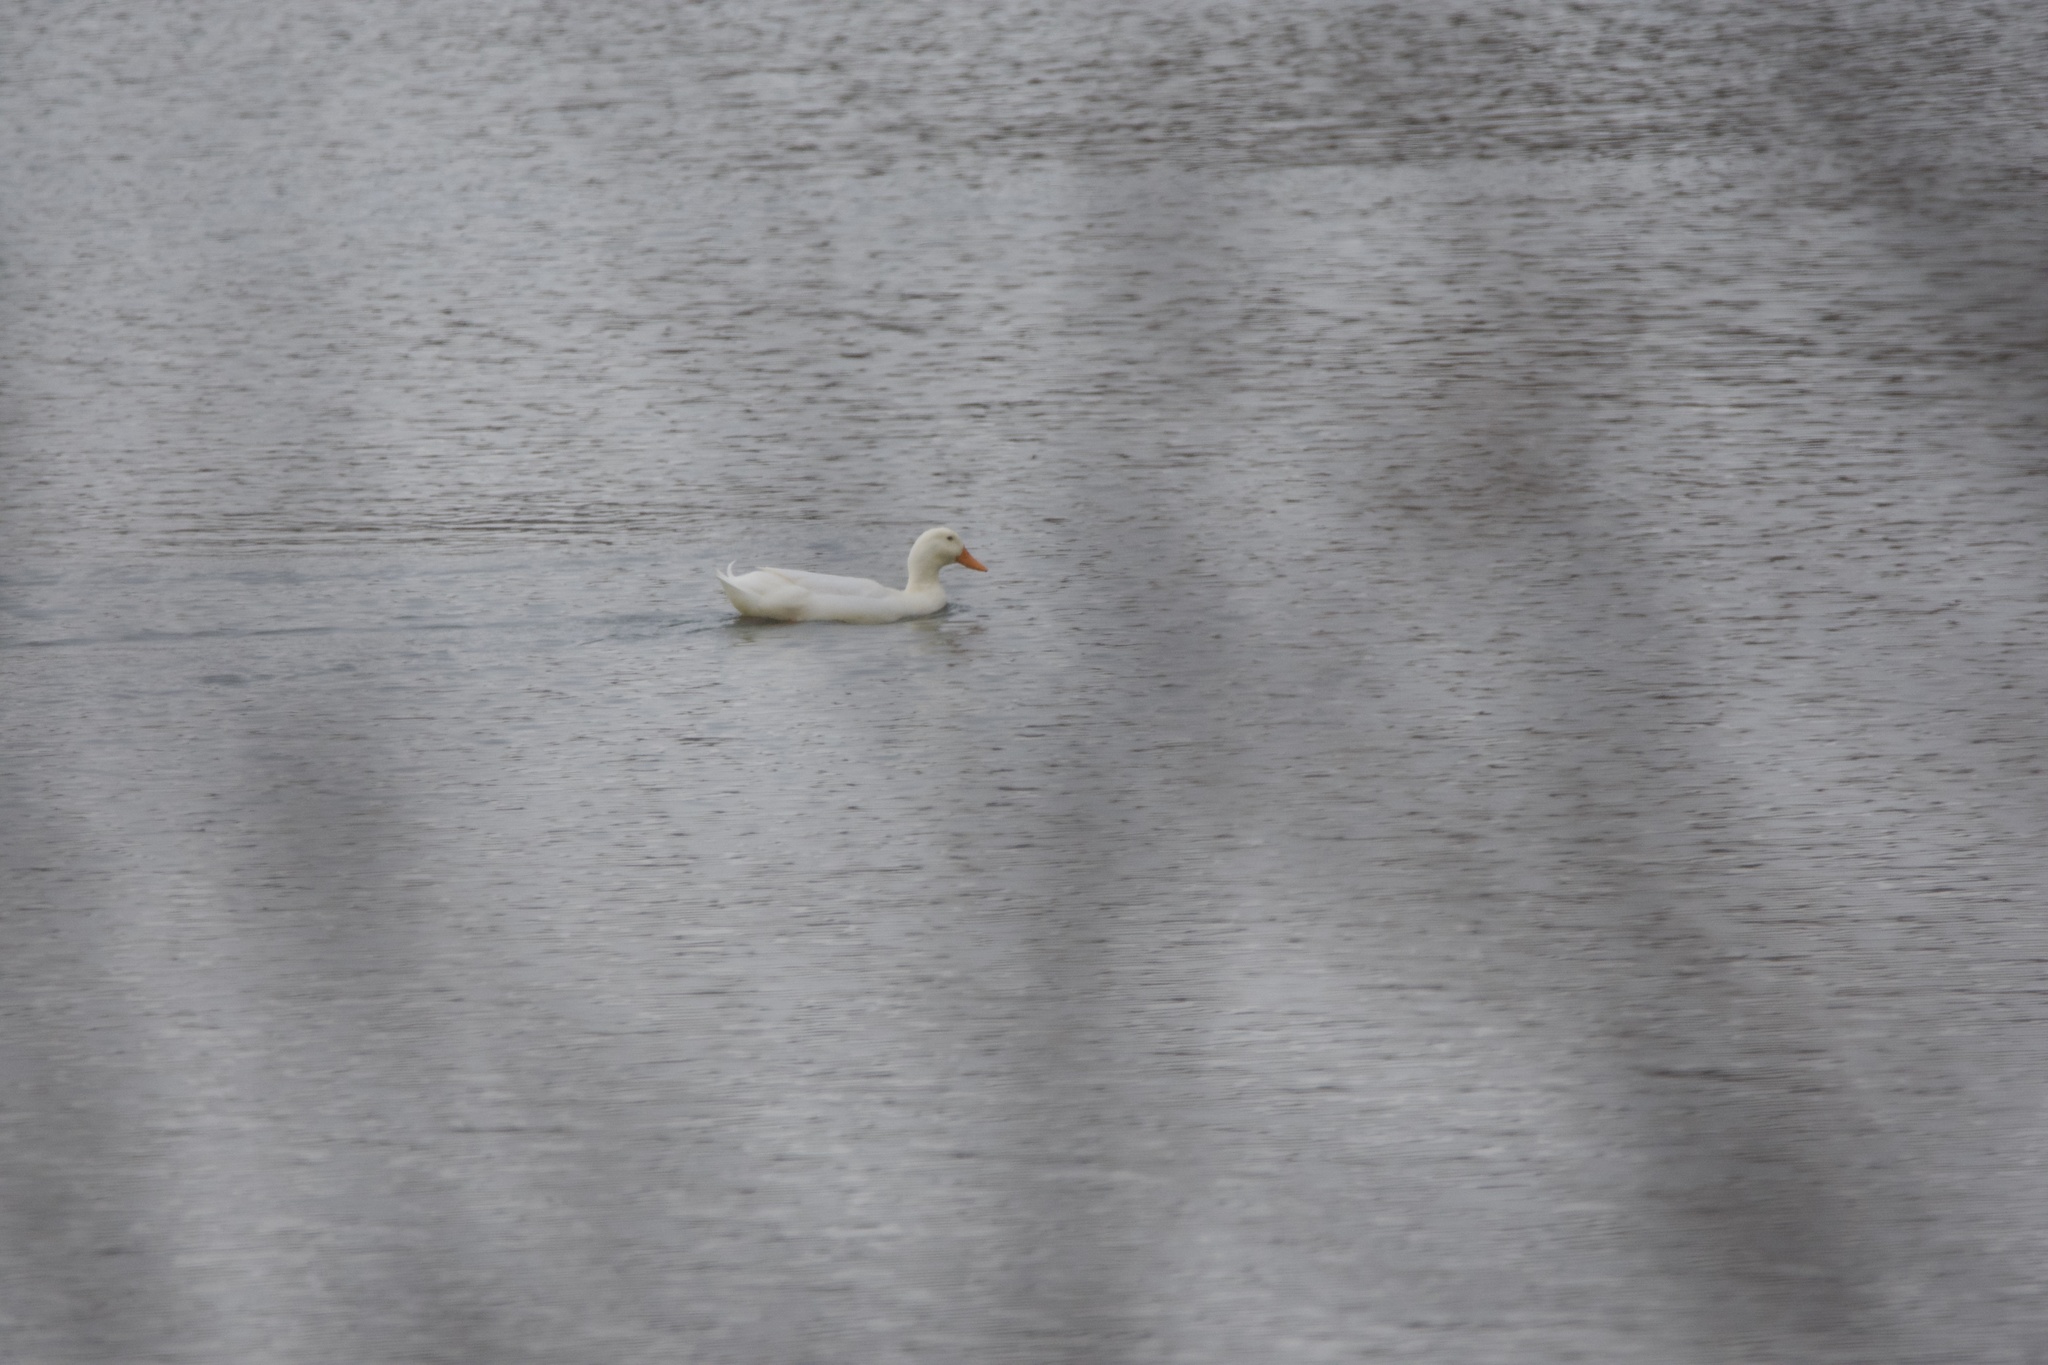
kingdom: Animalia
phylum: Chordata
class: Aves
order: Anseriformes
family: Anatidae
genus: Anas
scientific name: Anas platyrhynchos
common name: Mallard
